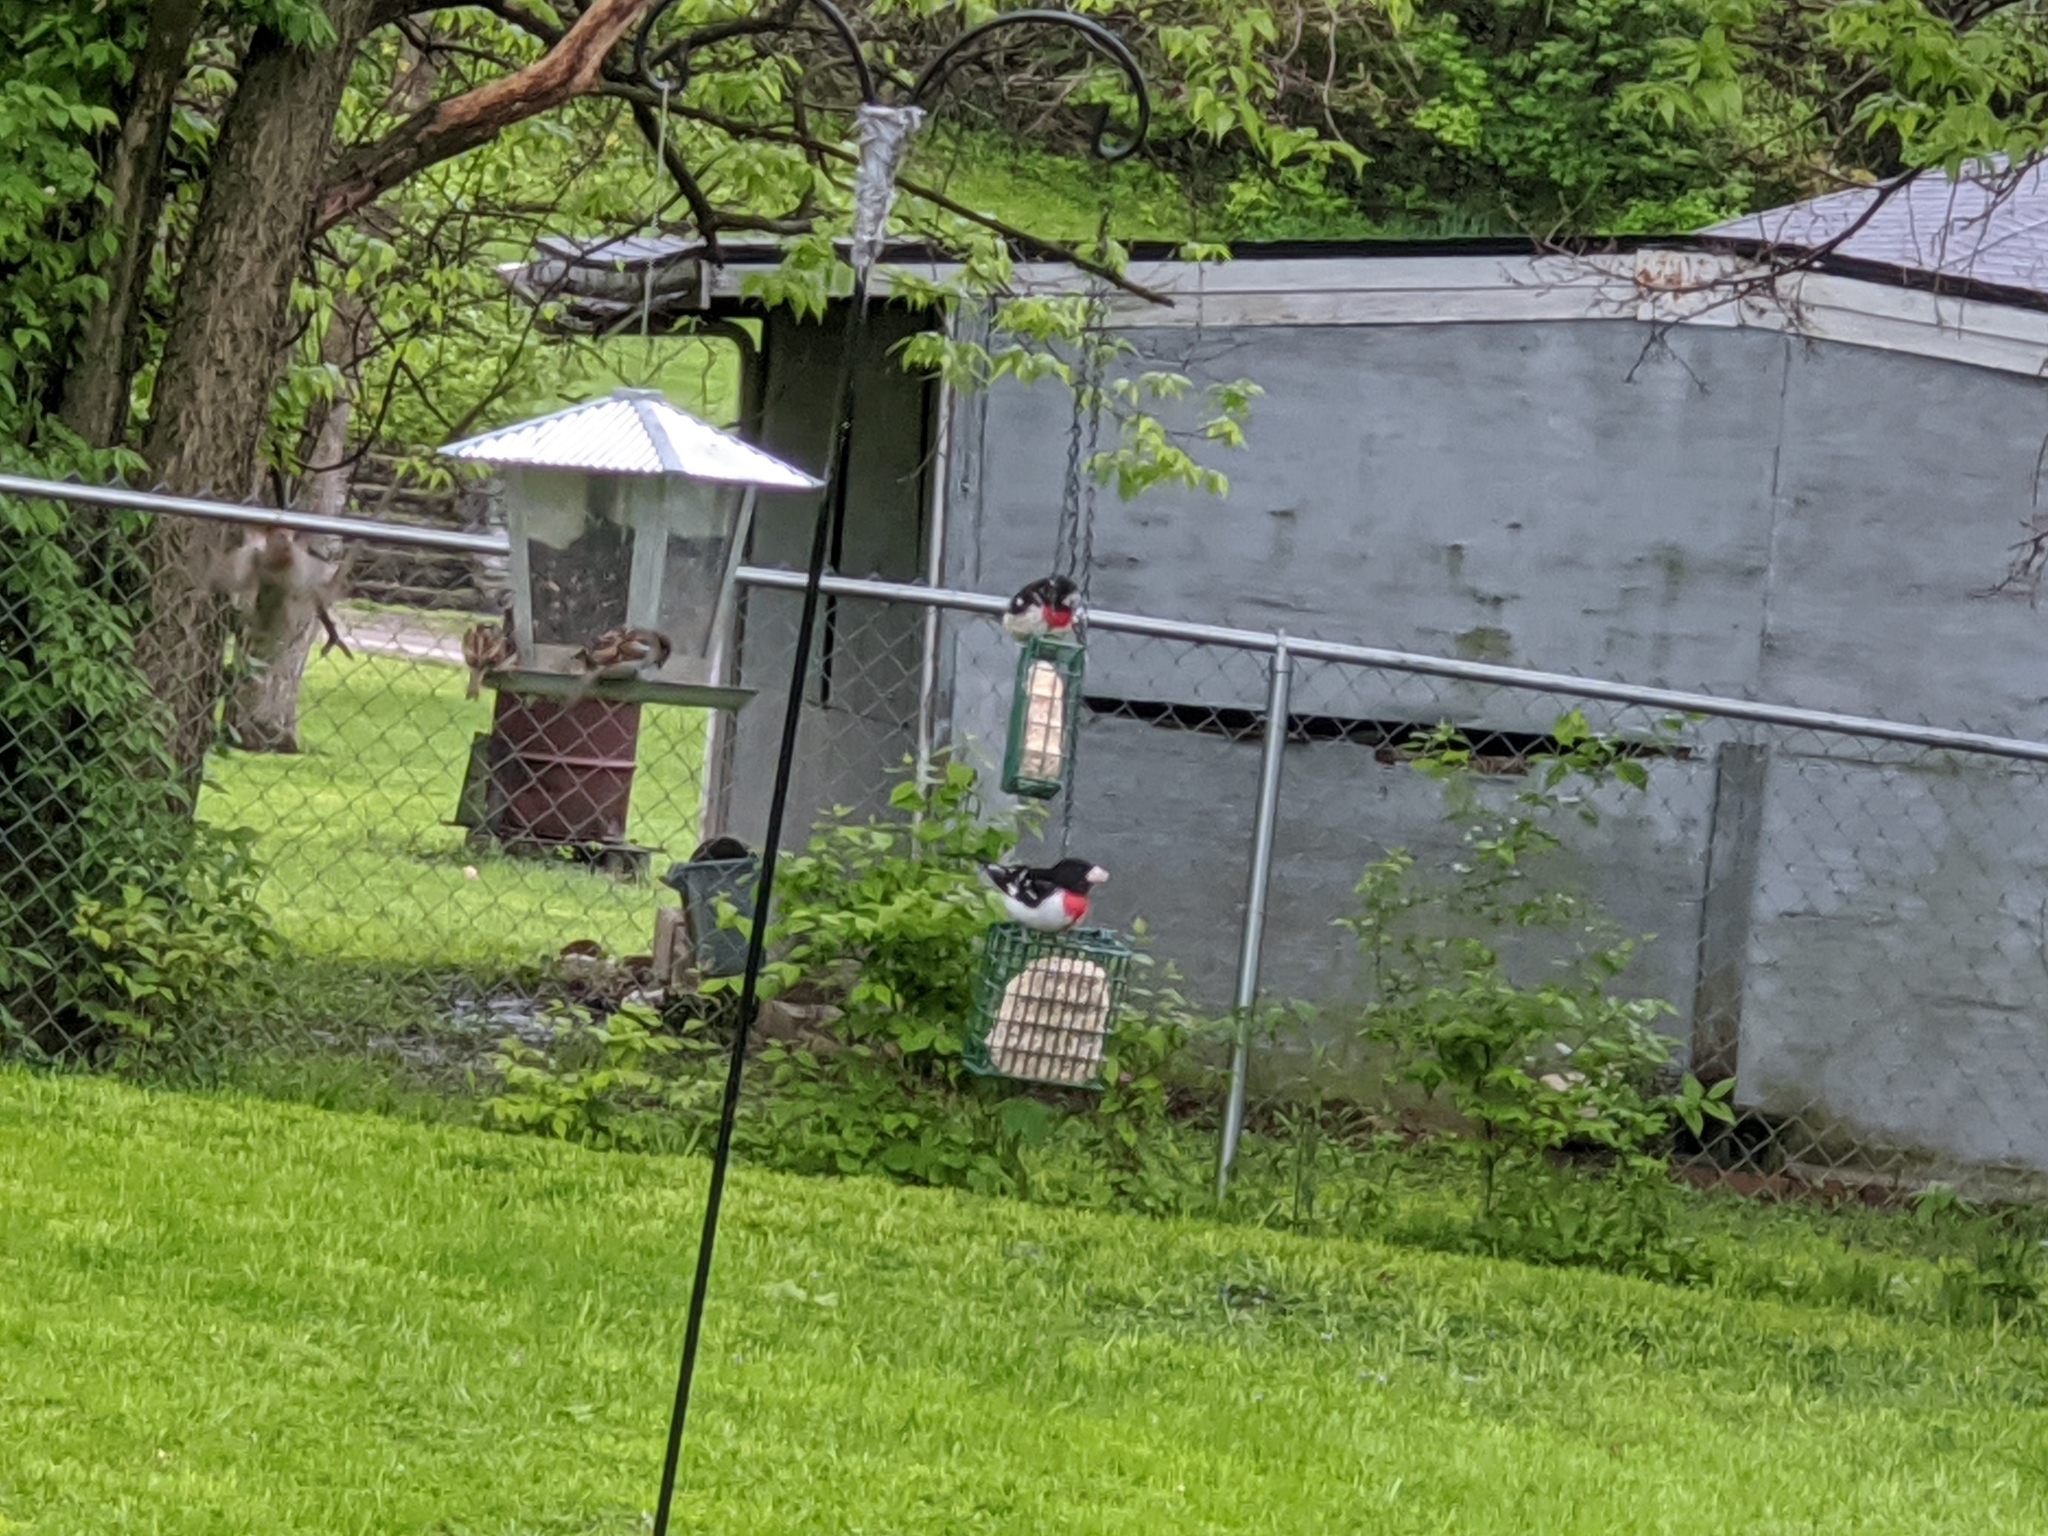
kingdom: Animalia
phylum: Chordata
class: Aves
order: Passeriformes
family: Cardinalidae
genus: Pheucticus
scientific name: Pheucticus ludovicianus
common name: Rose-breasted grosbeak
